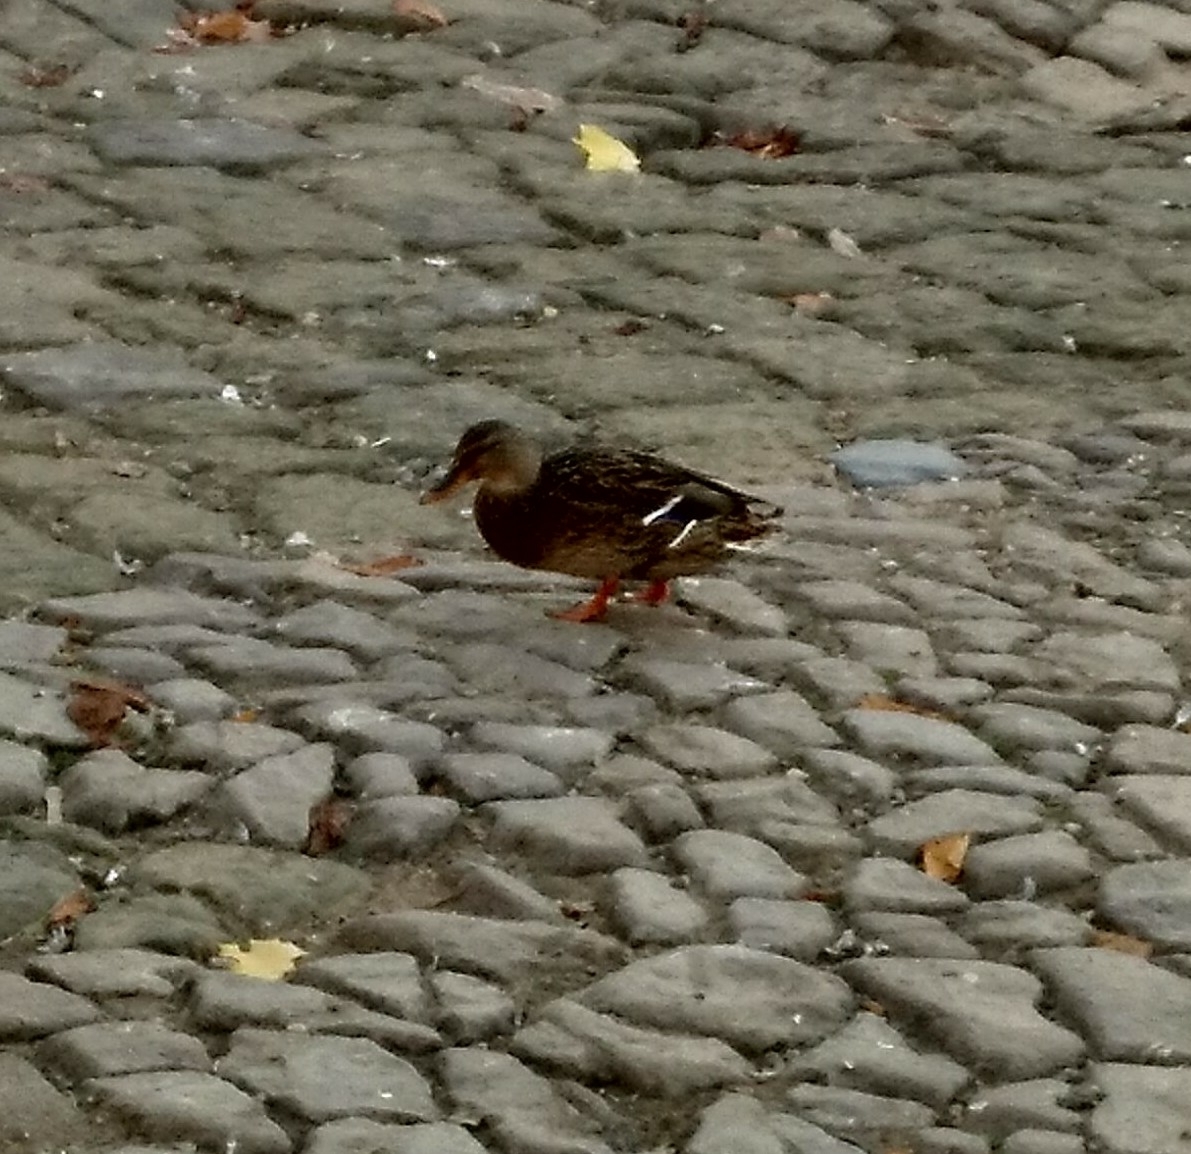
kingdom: Animalia
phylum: Chordata
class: Aves
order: Anseriformes
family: Anatidae
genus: Anas
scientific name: Anas platyrhynchos
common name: Mallard
